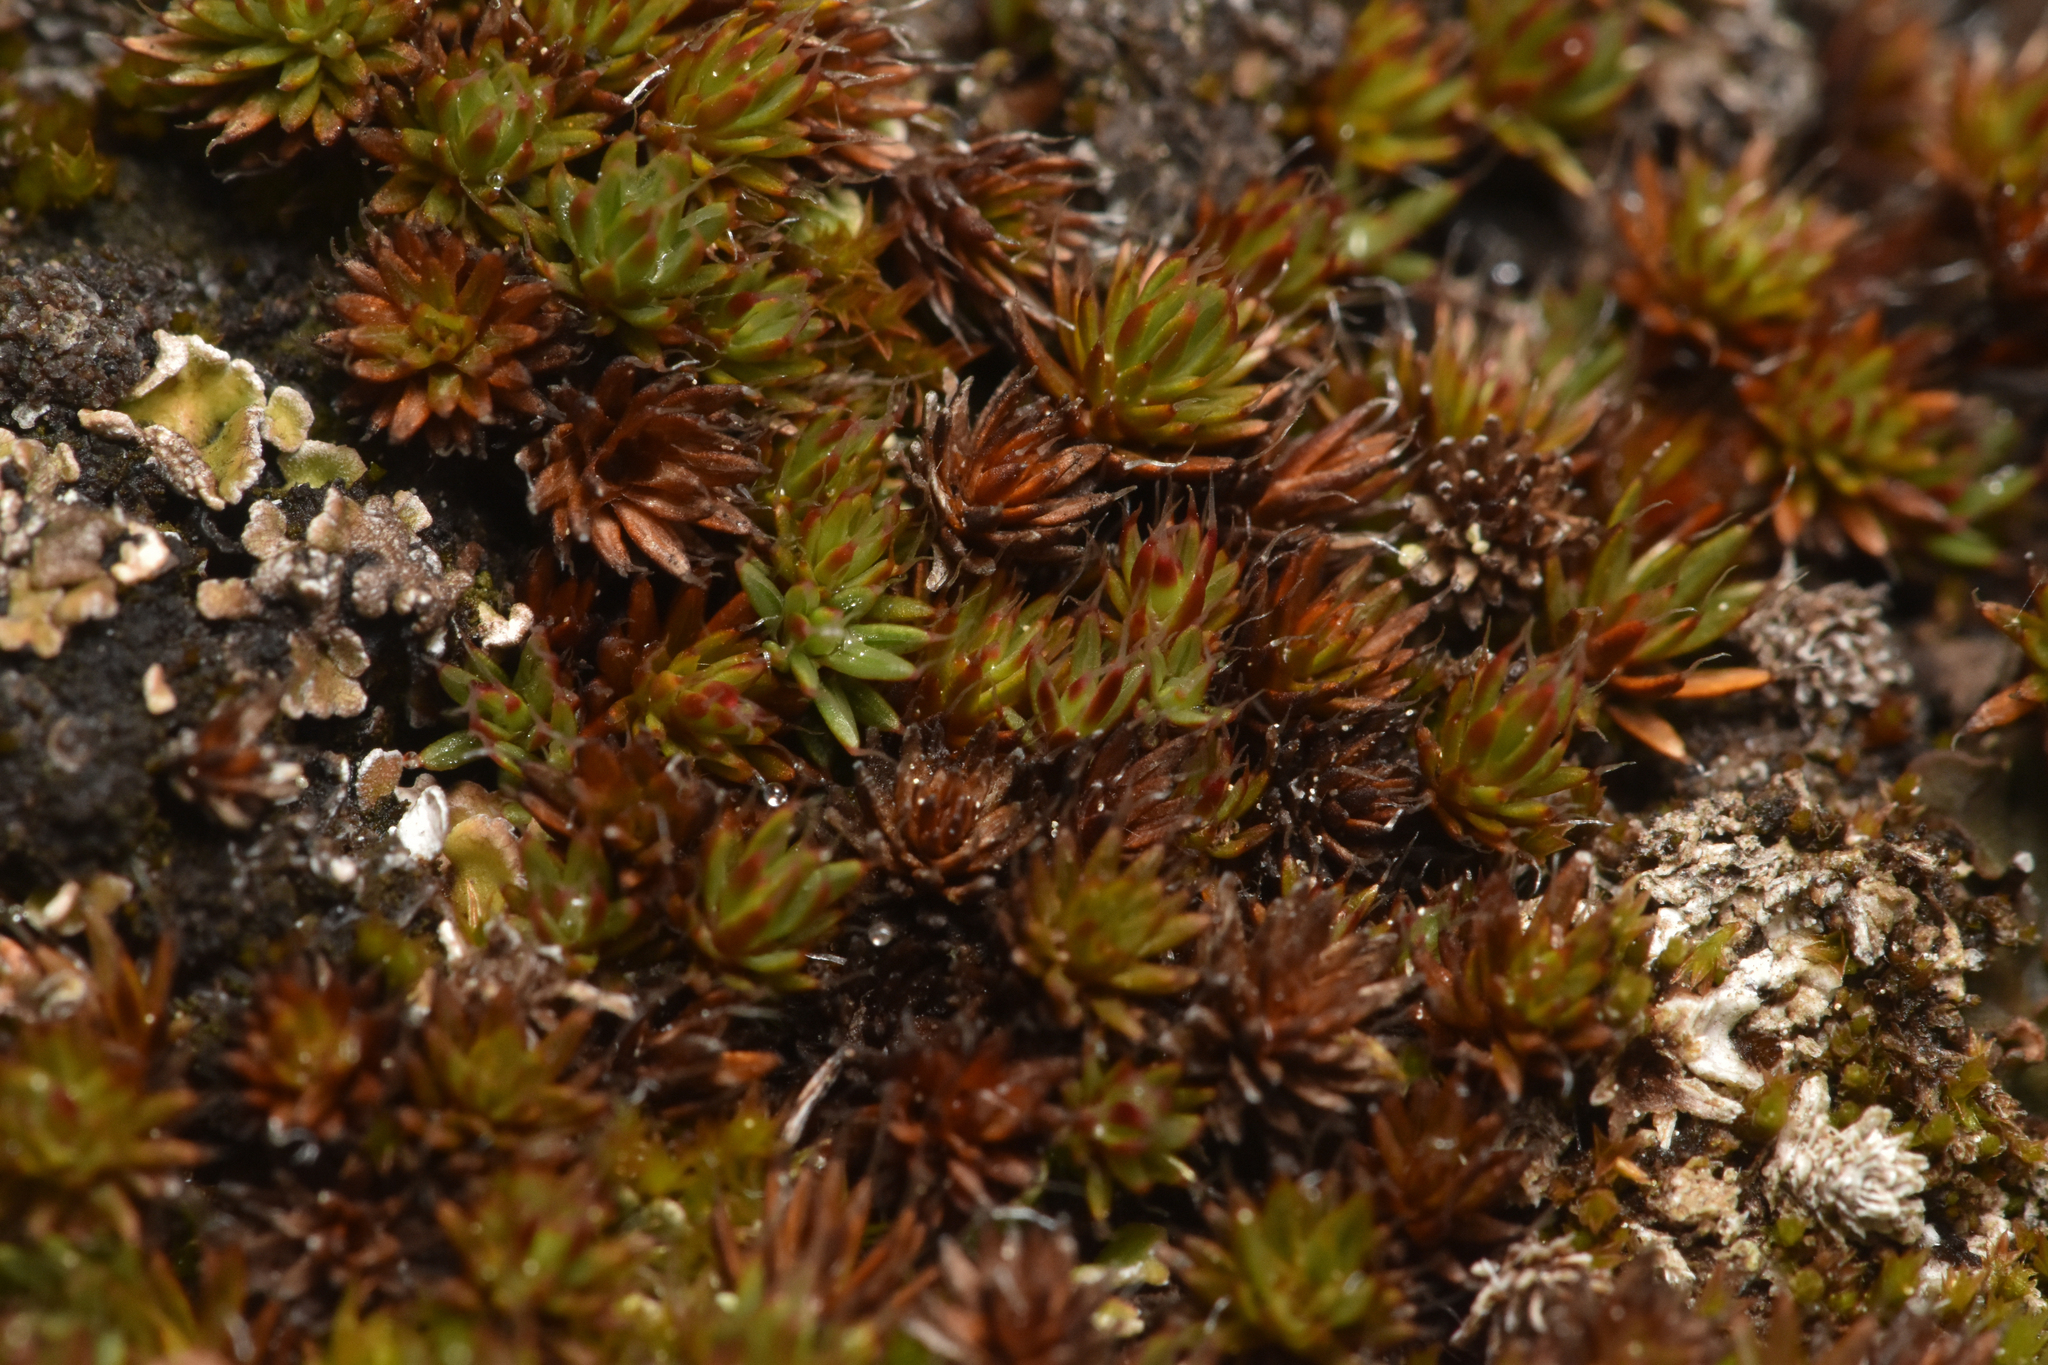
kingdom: Plantae
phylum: Bryophyta
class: Polytrichopsida
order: Polytrichales
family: Polytrichaceae
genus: Polytrichum
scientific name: Polytrichum piliferum
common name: Bristly haircap
